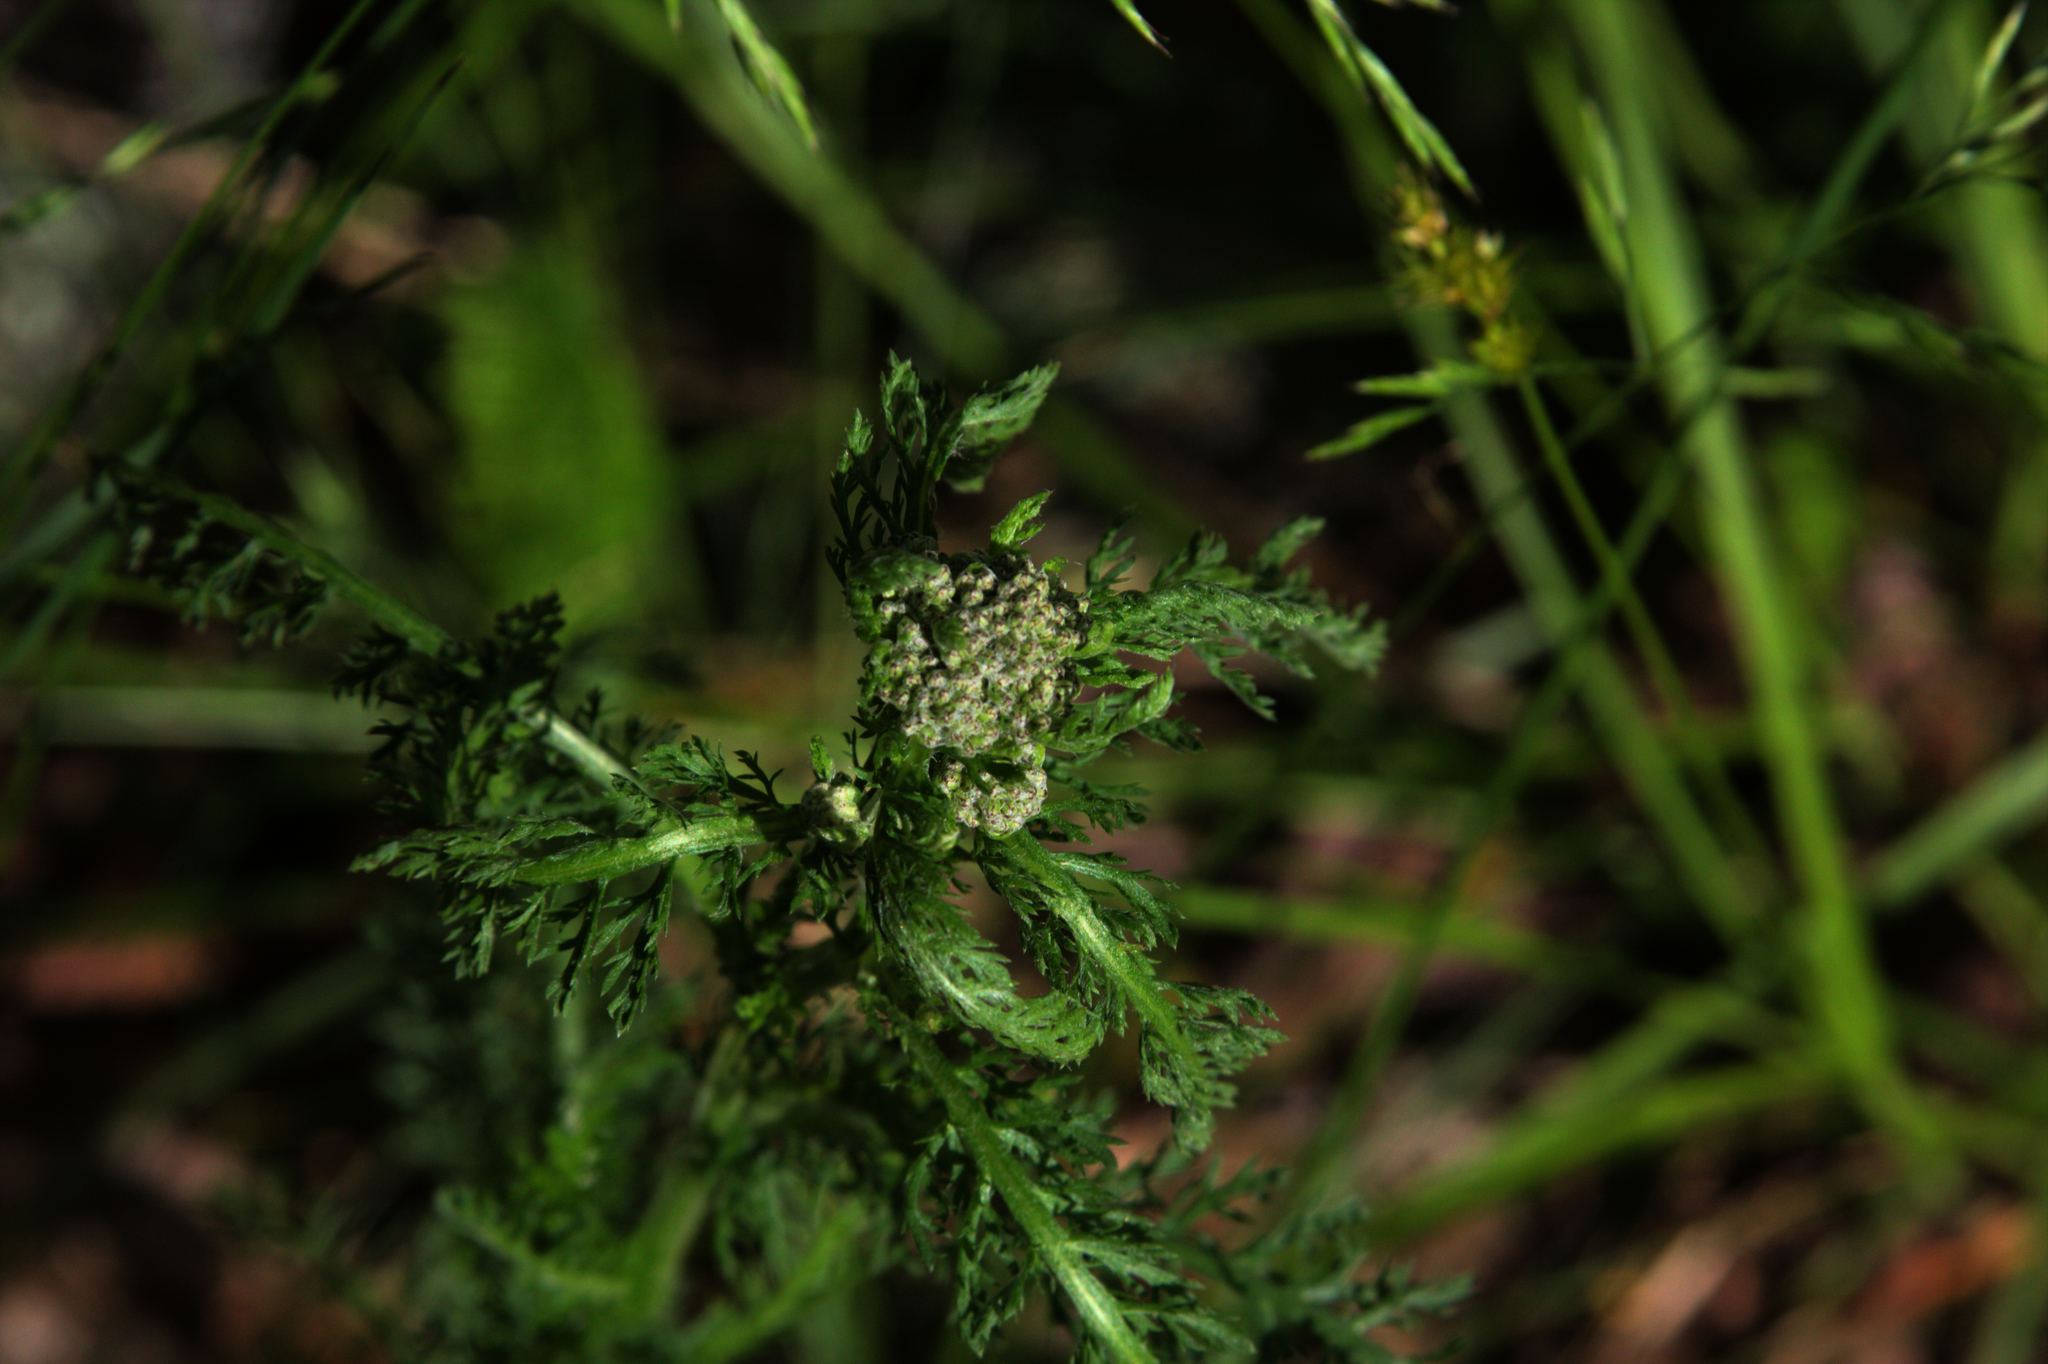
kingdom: Plantae
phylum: Tracheophyta
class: Magnoliopsida
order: Asterales
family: Asteraceae
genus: Achillea
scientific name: Achillea millefolium
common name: Yarrow
